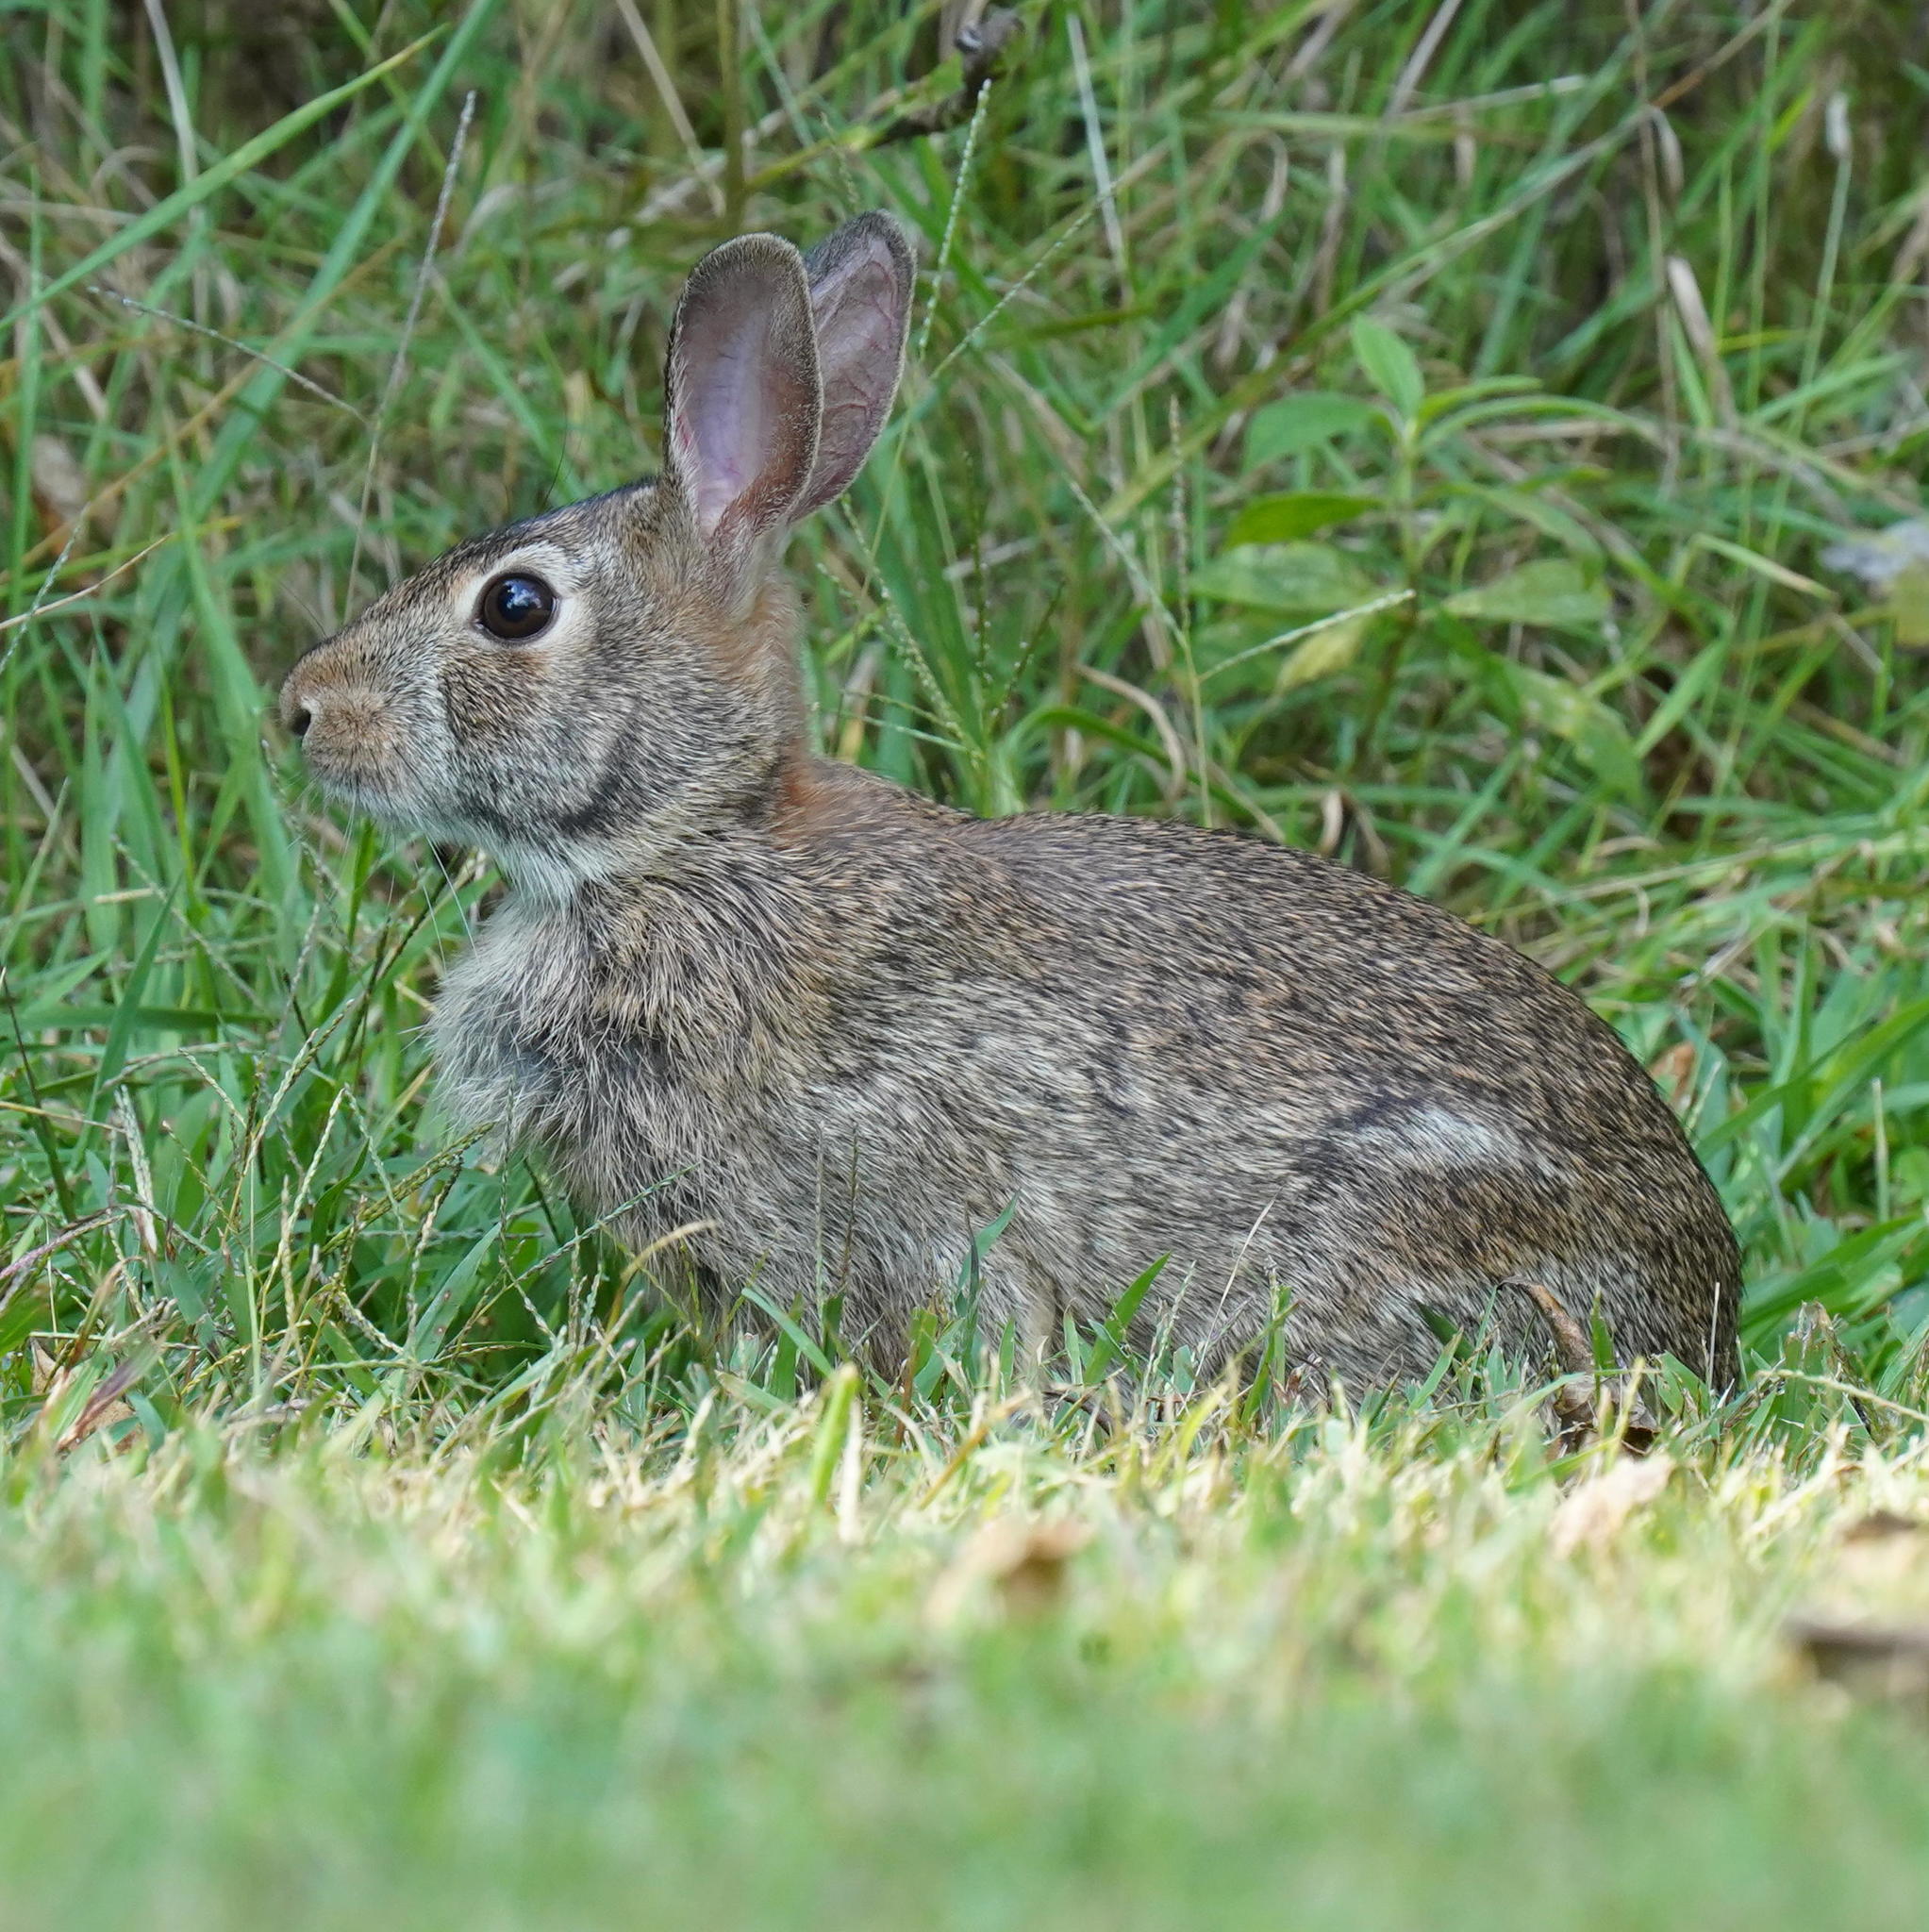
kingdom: Animalia
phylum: Chordata
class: Mammalia
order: Lagomorpha
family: Leporidae
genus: Sylvilagus
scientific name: Sylvilagus floridanus
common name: Eastern cottontail
